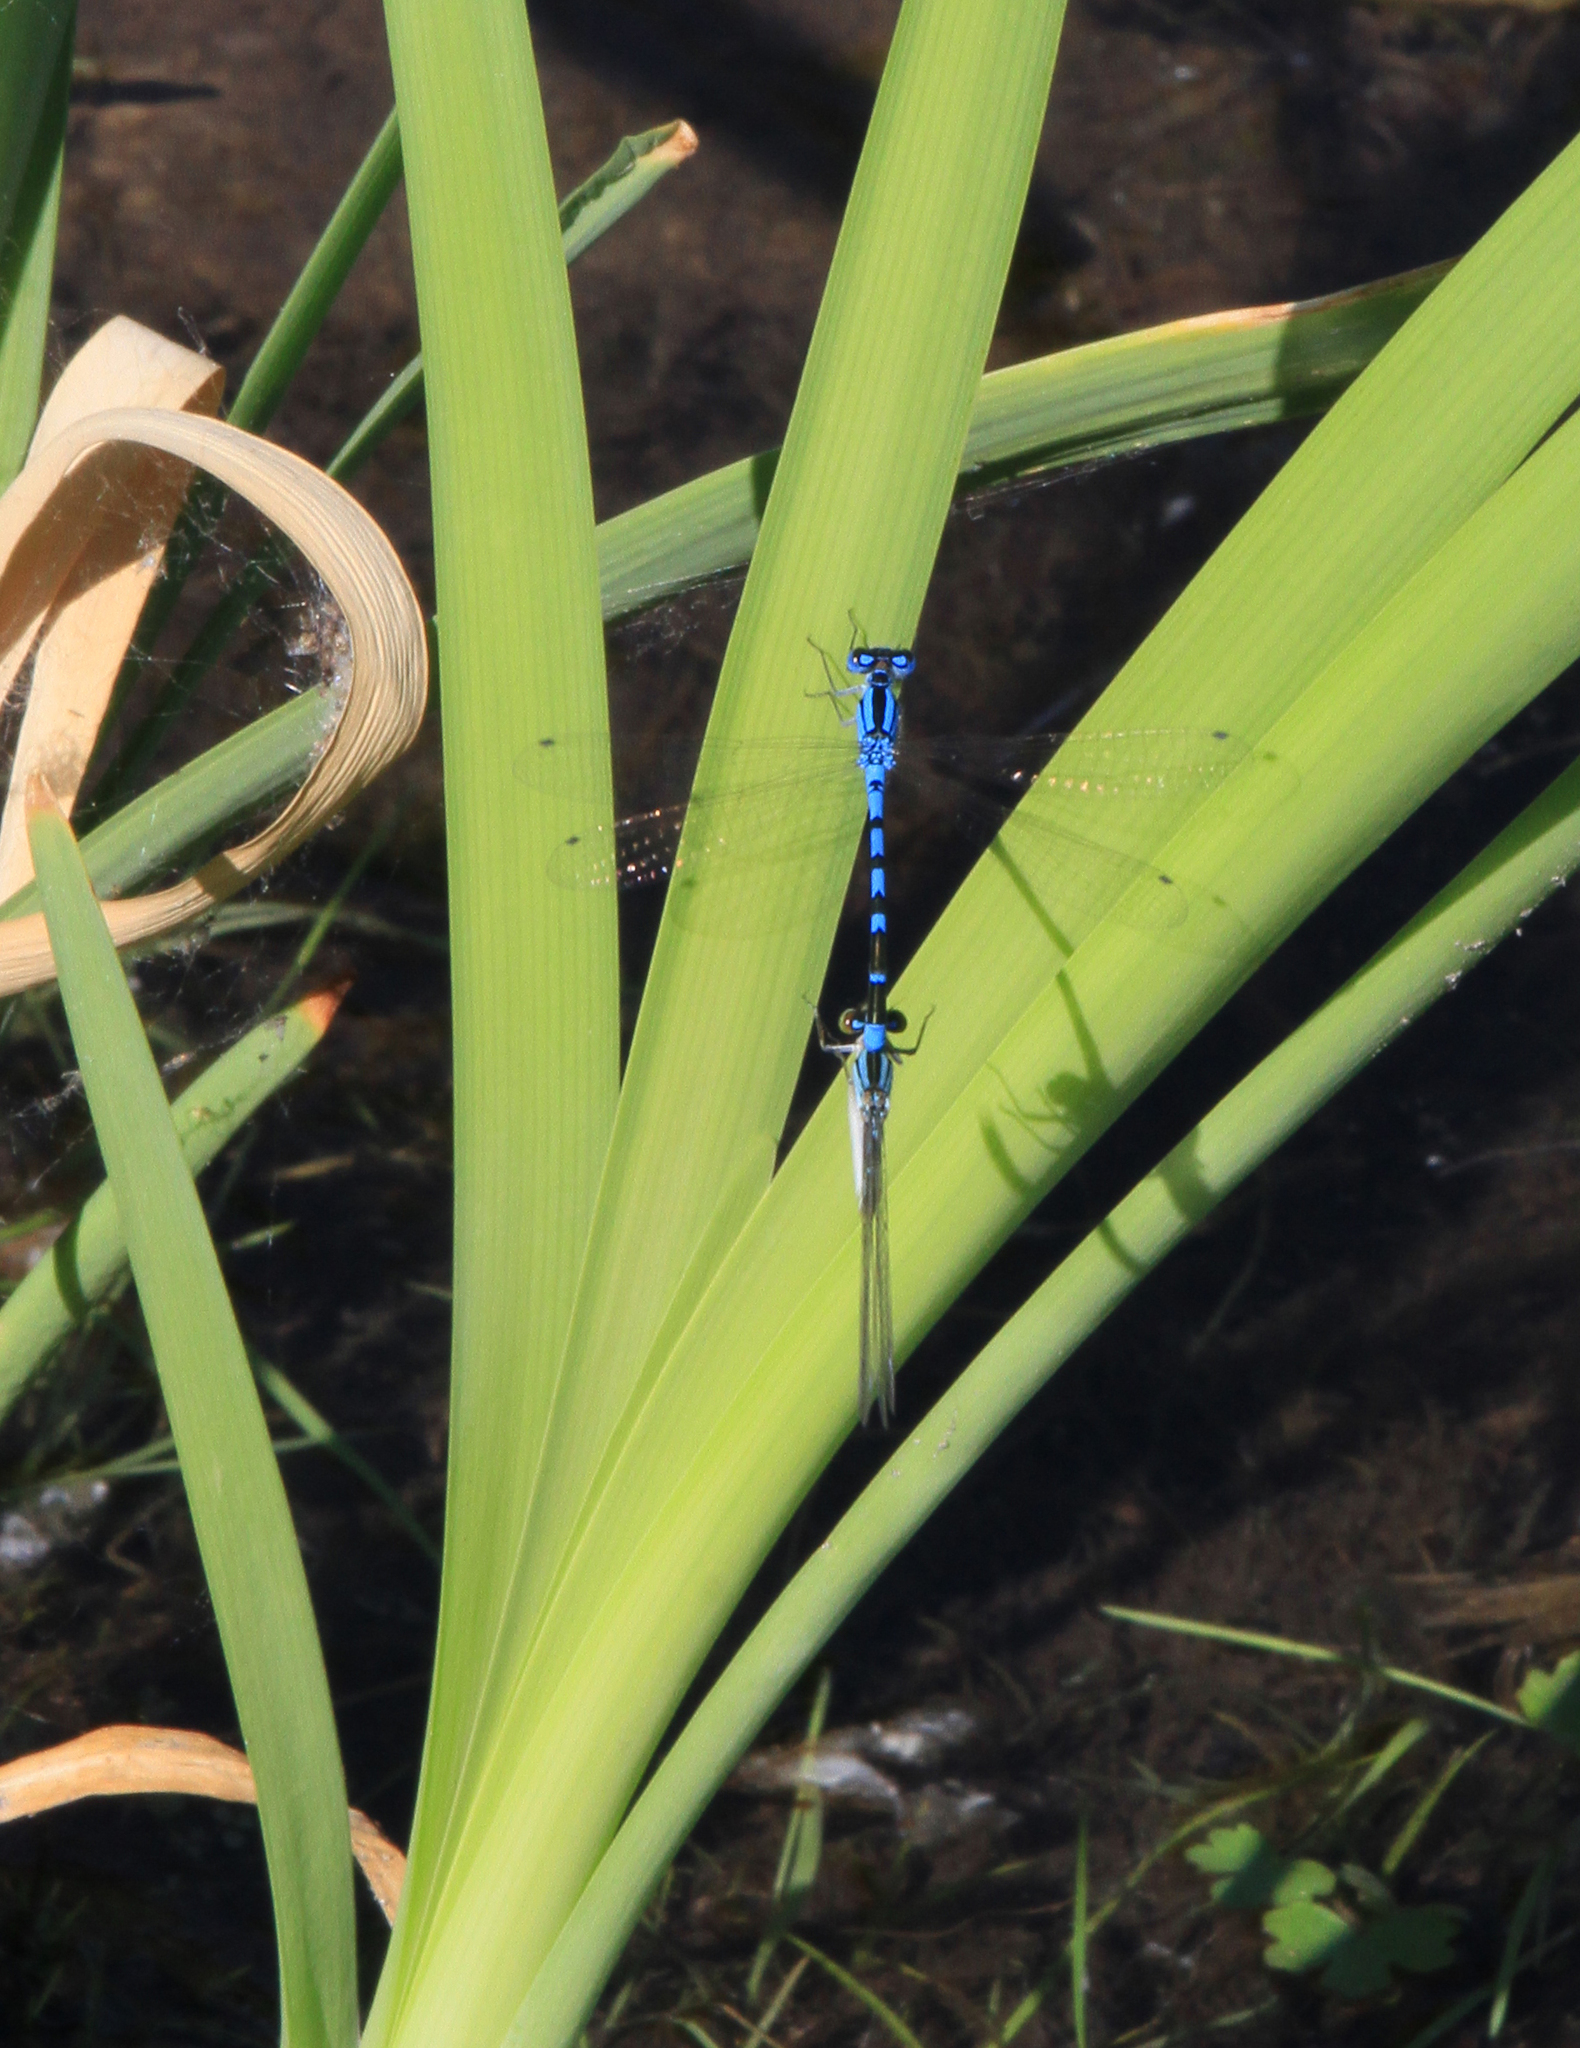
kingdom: Animalia
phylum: Arthropoda
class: Insecta
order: Odonata
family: Coenagrionidae
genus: Enallagma
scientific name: Enallagma cyathigerum
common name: Common blue damselfly
